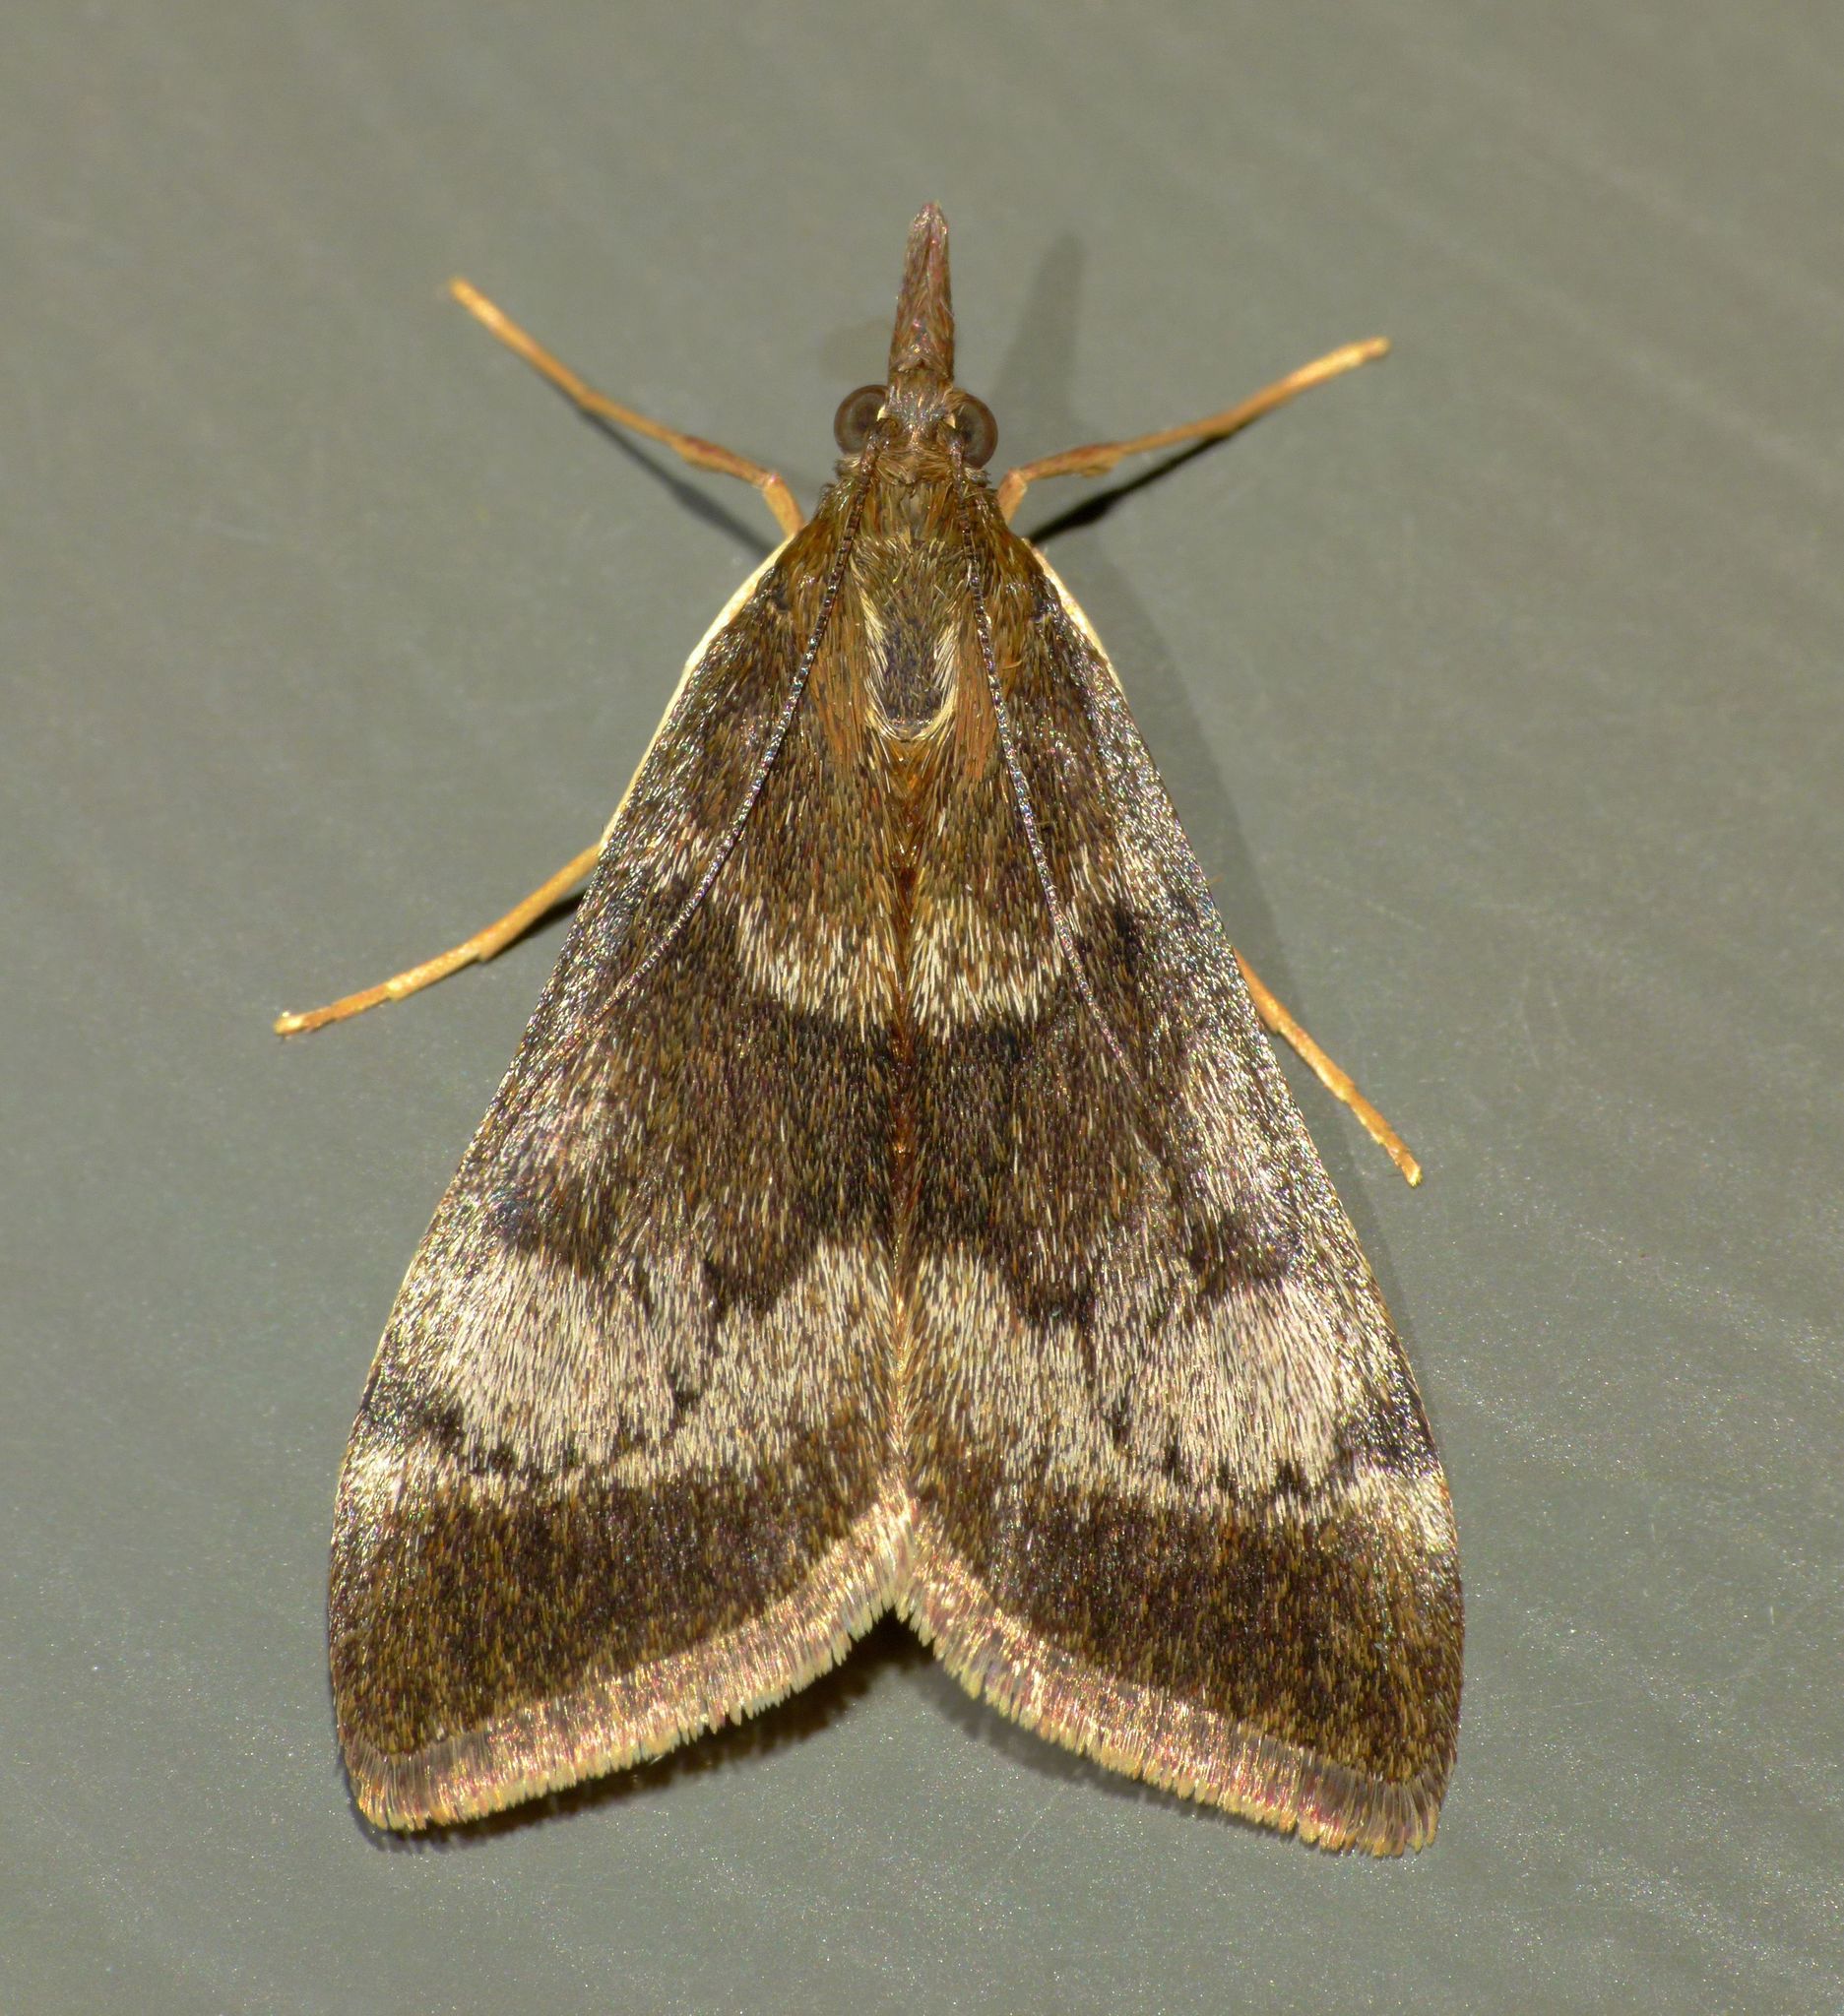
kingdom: Animalia
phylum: Arthropoda
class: Insecta
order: Lepidoptera
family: Crambidae
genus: Uresiphita
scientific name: Uresiphita
